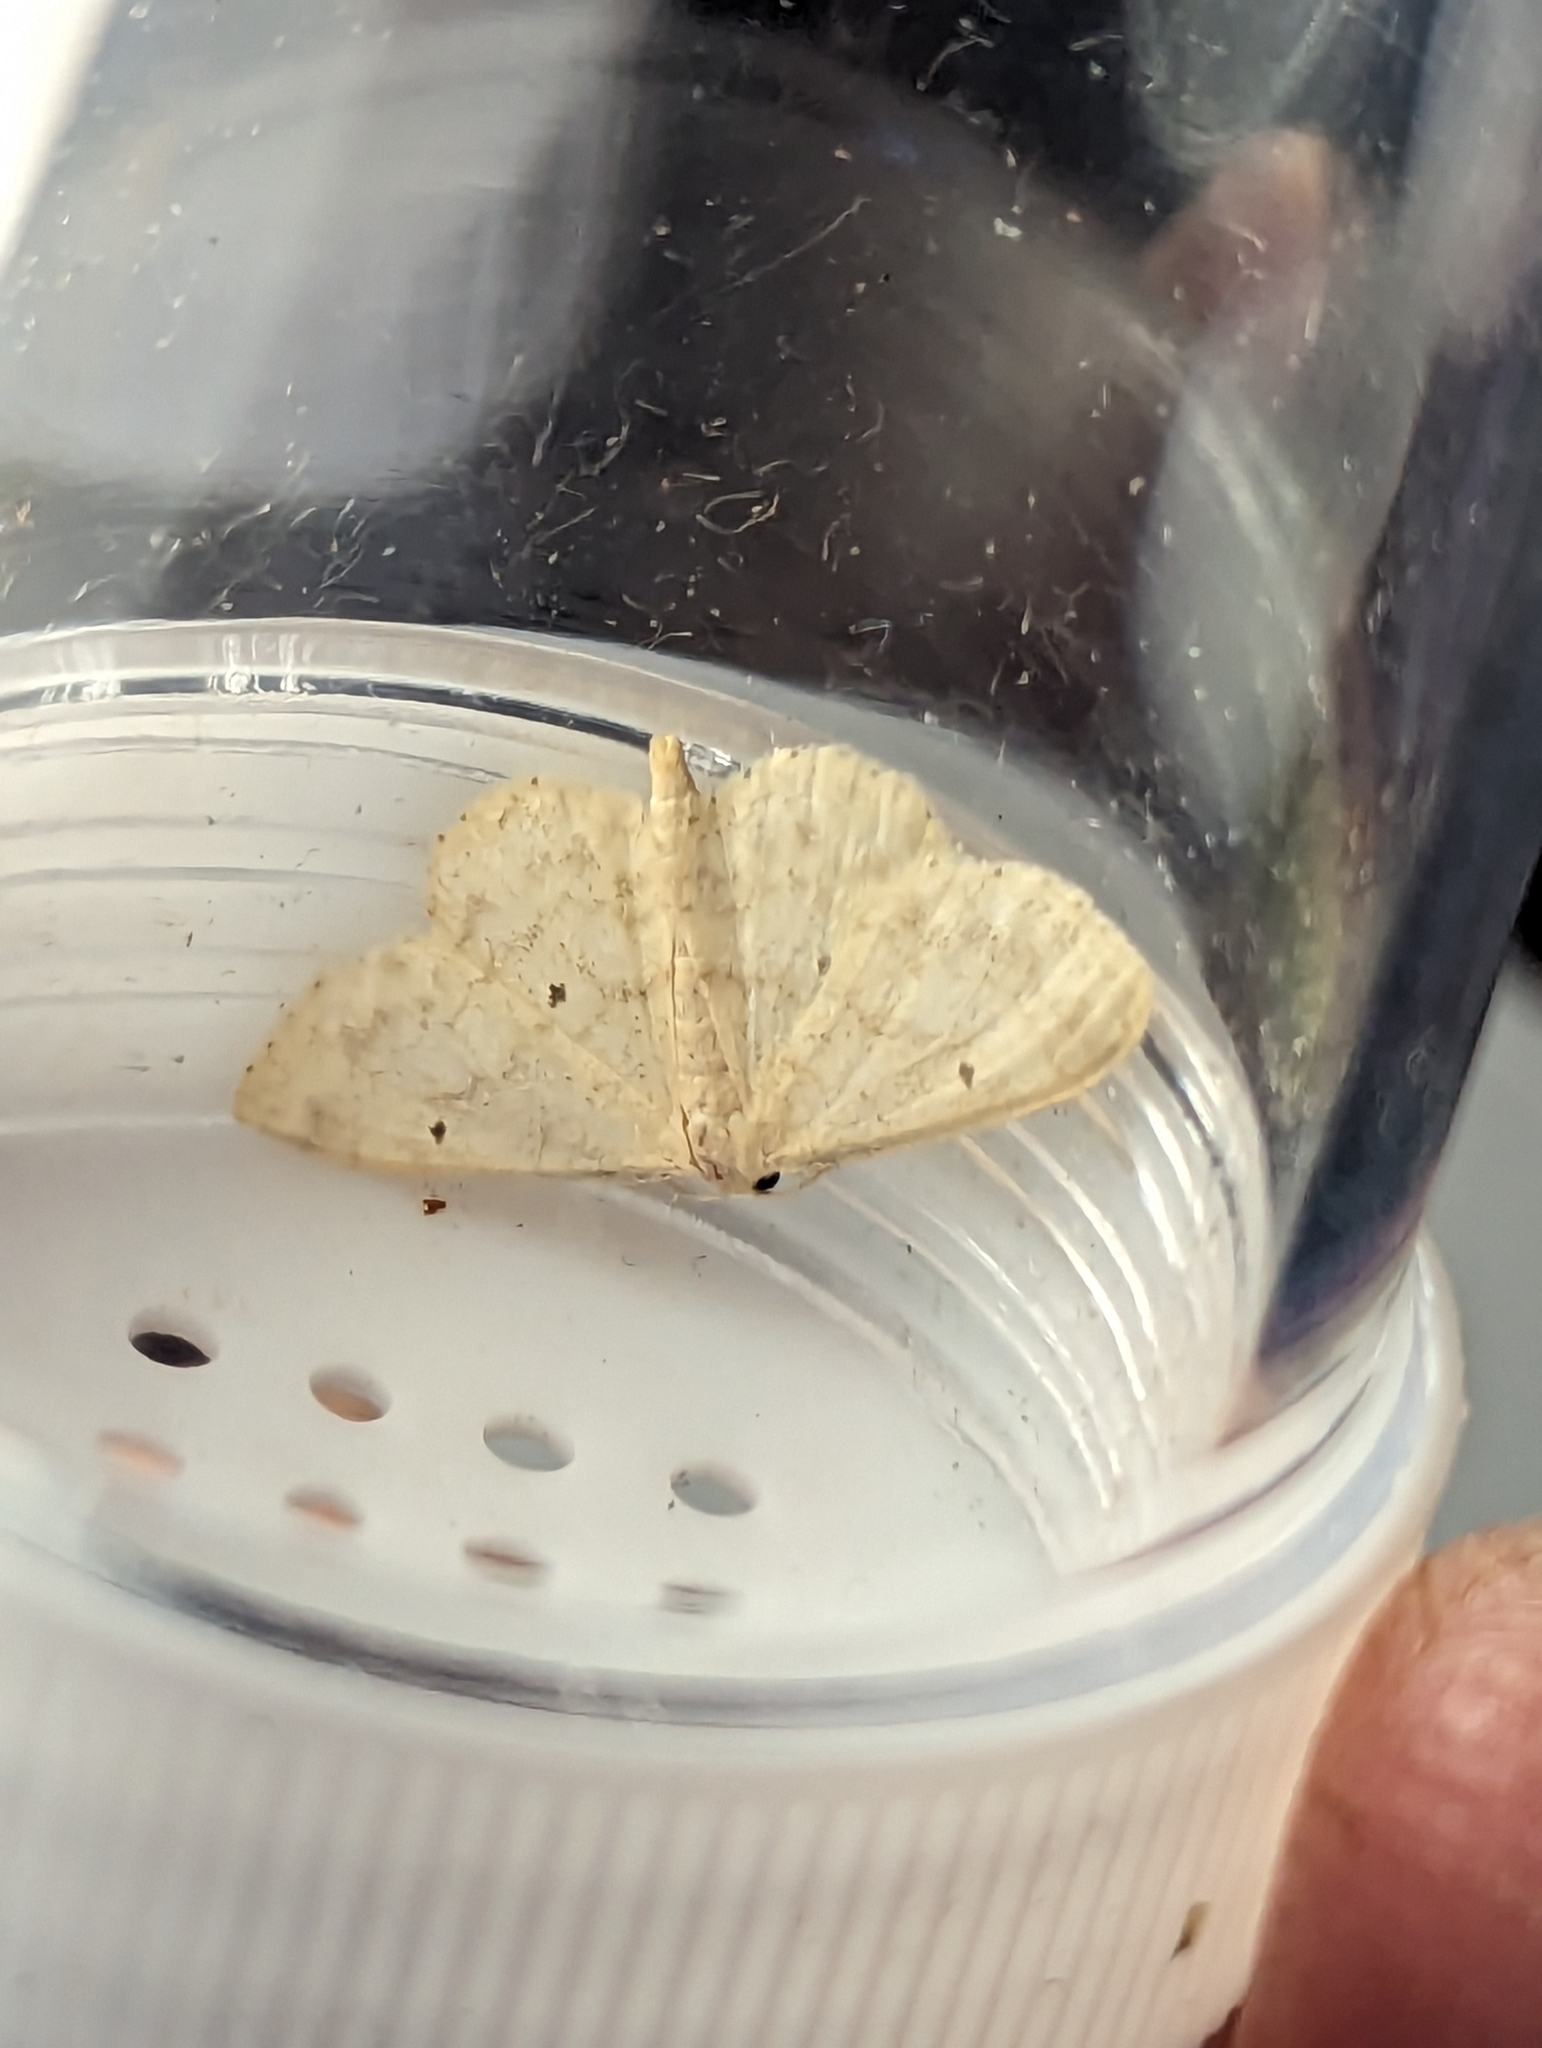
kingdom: Animalia
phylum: Arthropoda
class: Insecta
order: Lepidoptera
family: Geometridae
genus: Idaea
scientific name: Idaea biselata
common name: Small fan-footed wave
